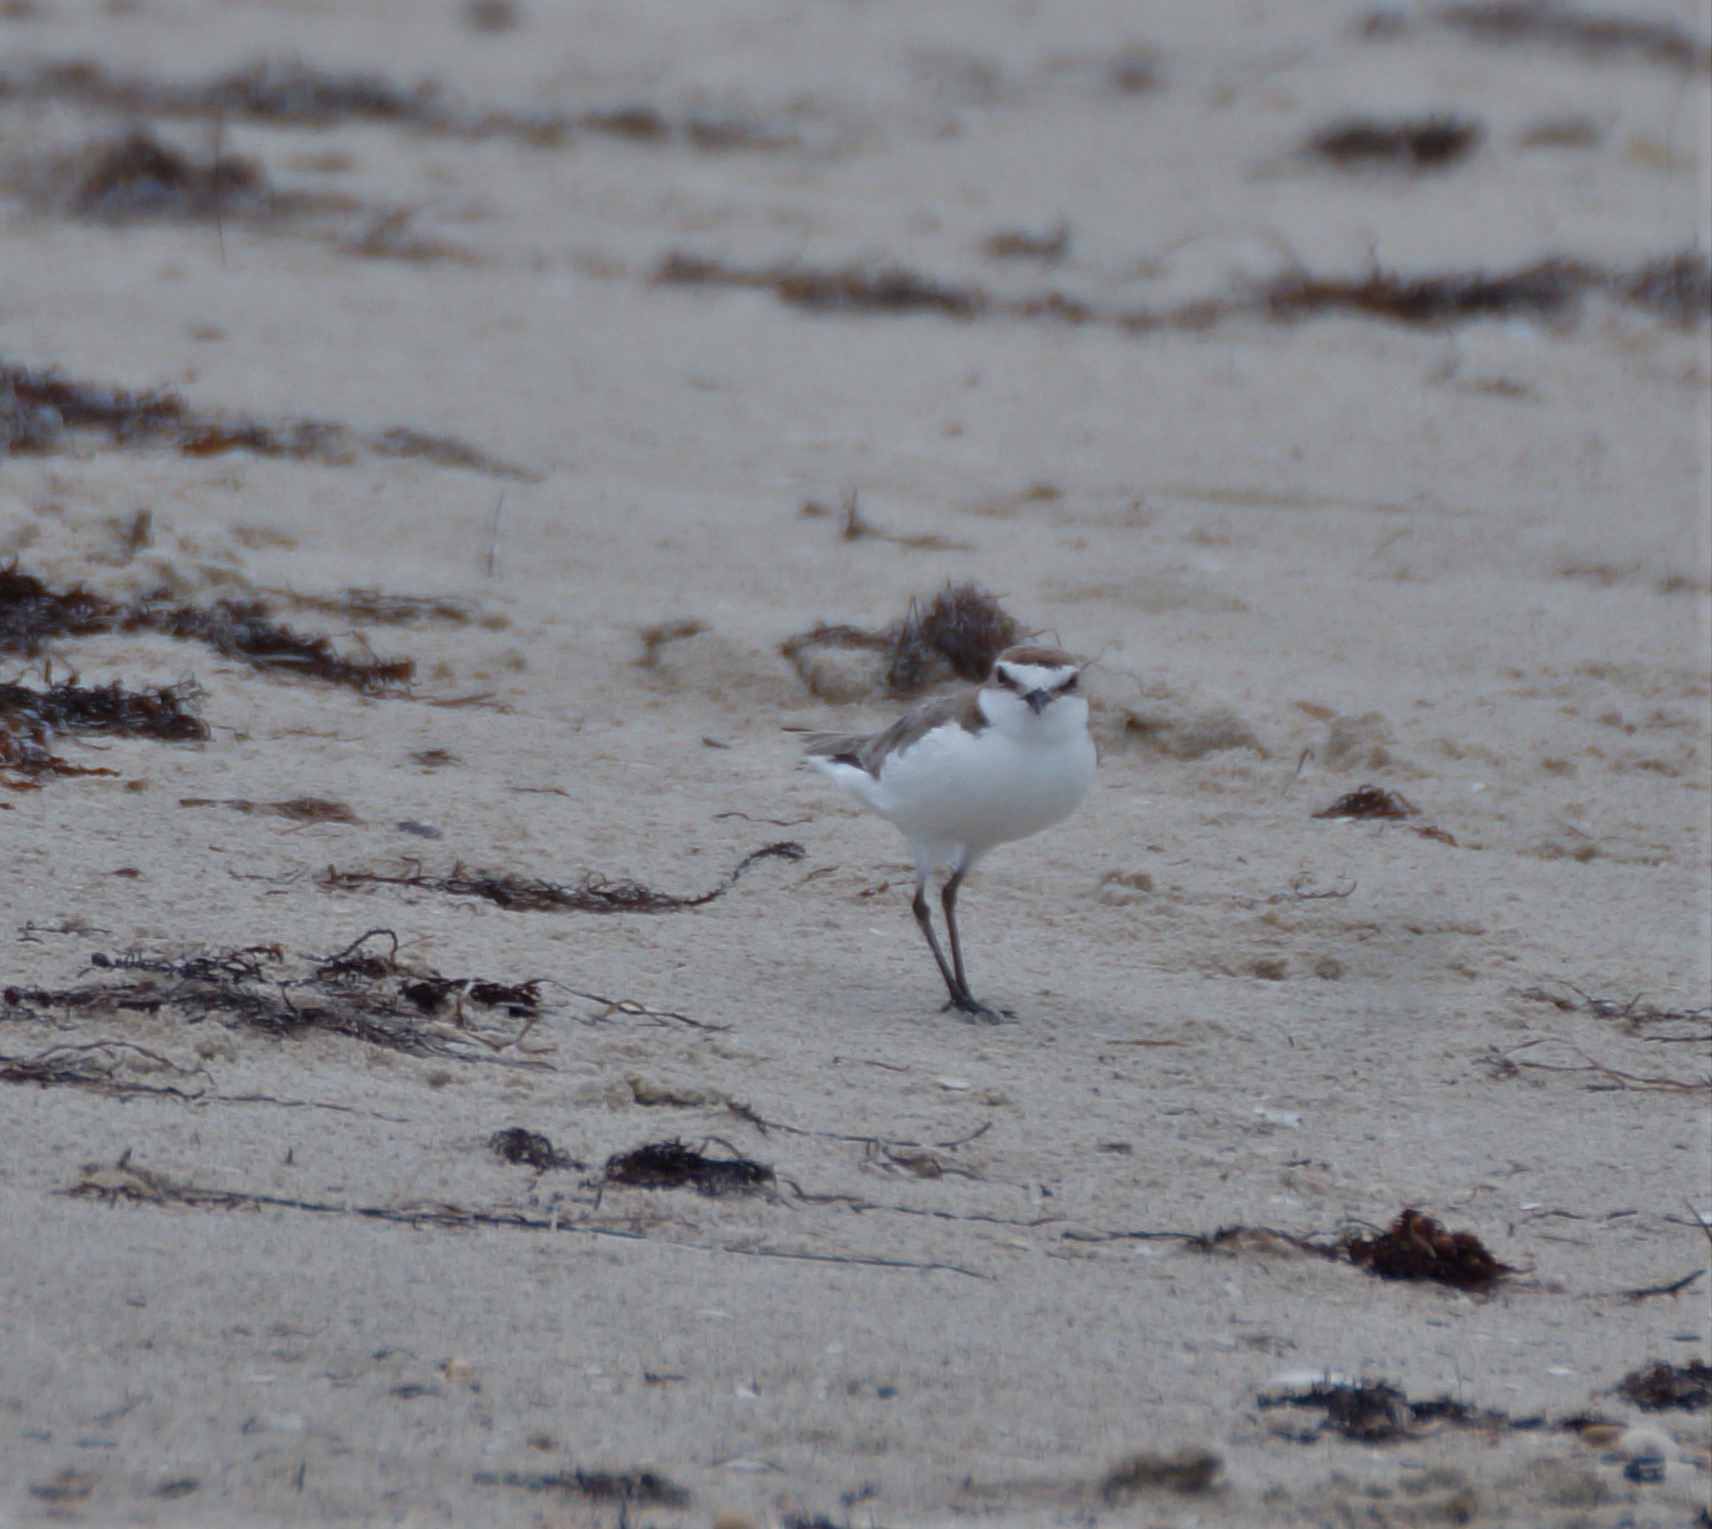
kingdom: Animalia
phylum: Chordata
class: Aves
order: Charadriiformes
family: Charadriidae
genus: Anarhynchus
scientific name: Anarhynchus
